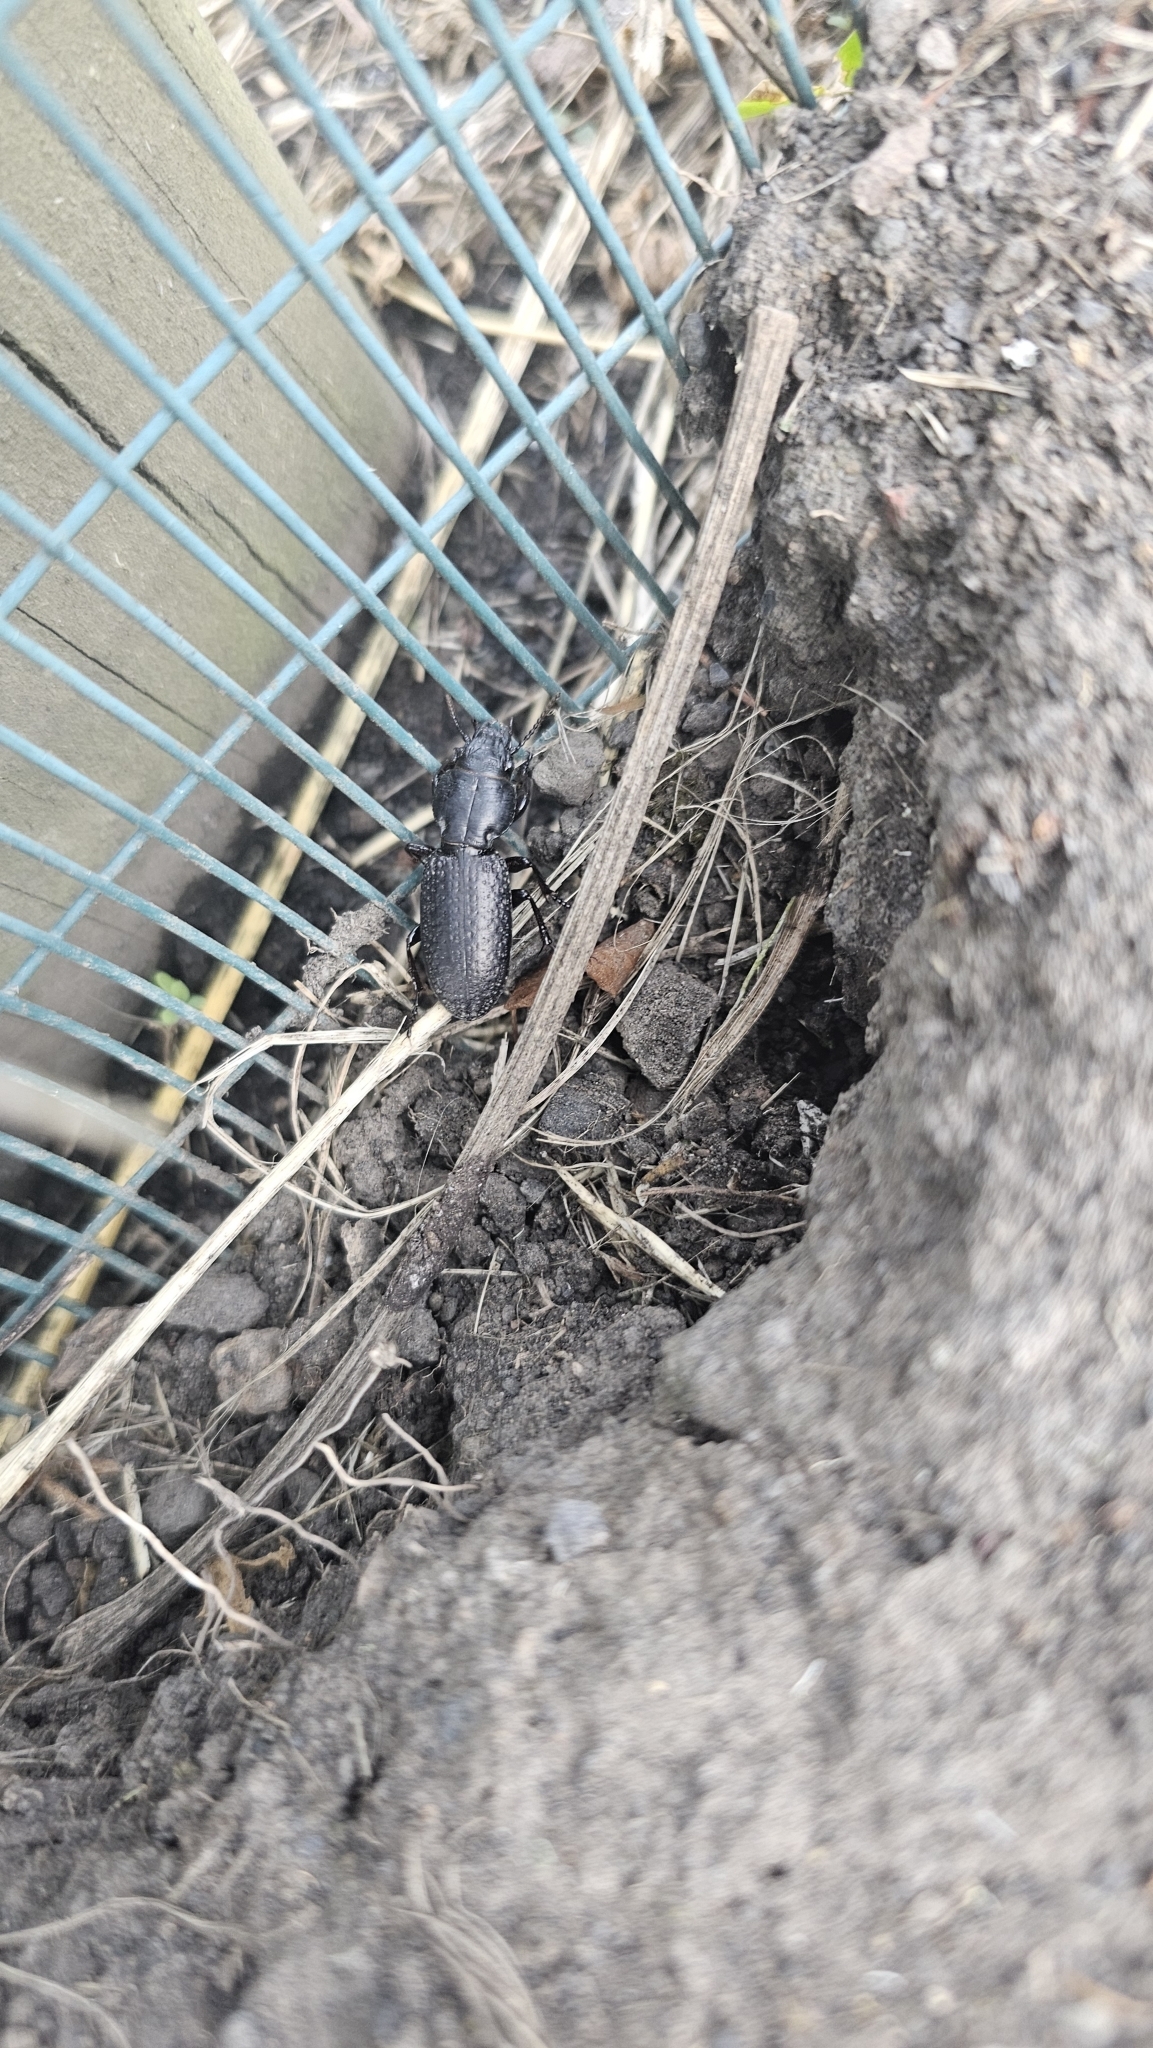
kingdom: Animalia
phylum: Arthropoda
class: Insecta
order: Coleoptera
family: Carabidae
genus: Mecodema
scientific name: Mecodema crenicolle
